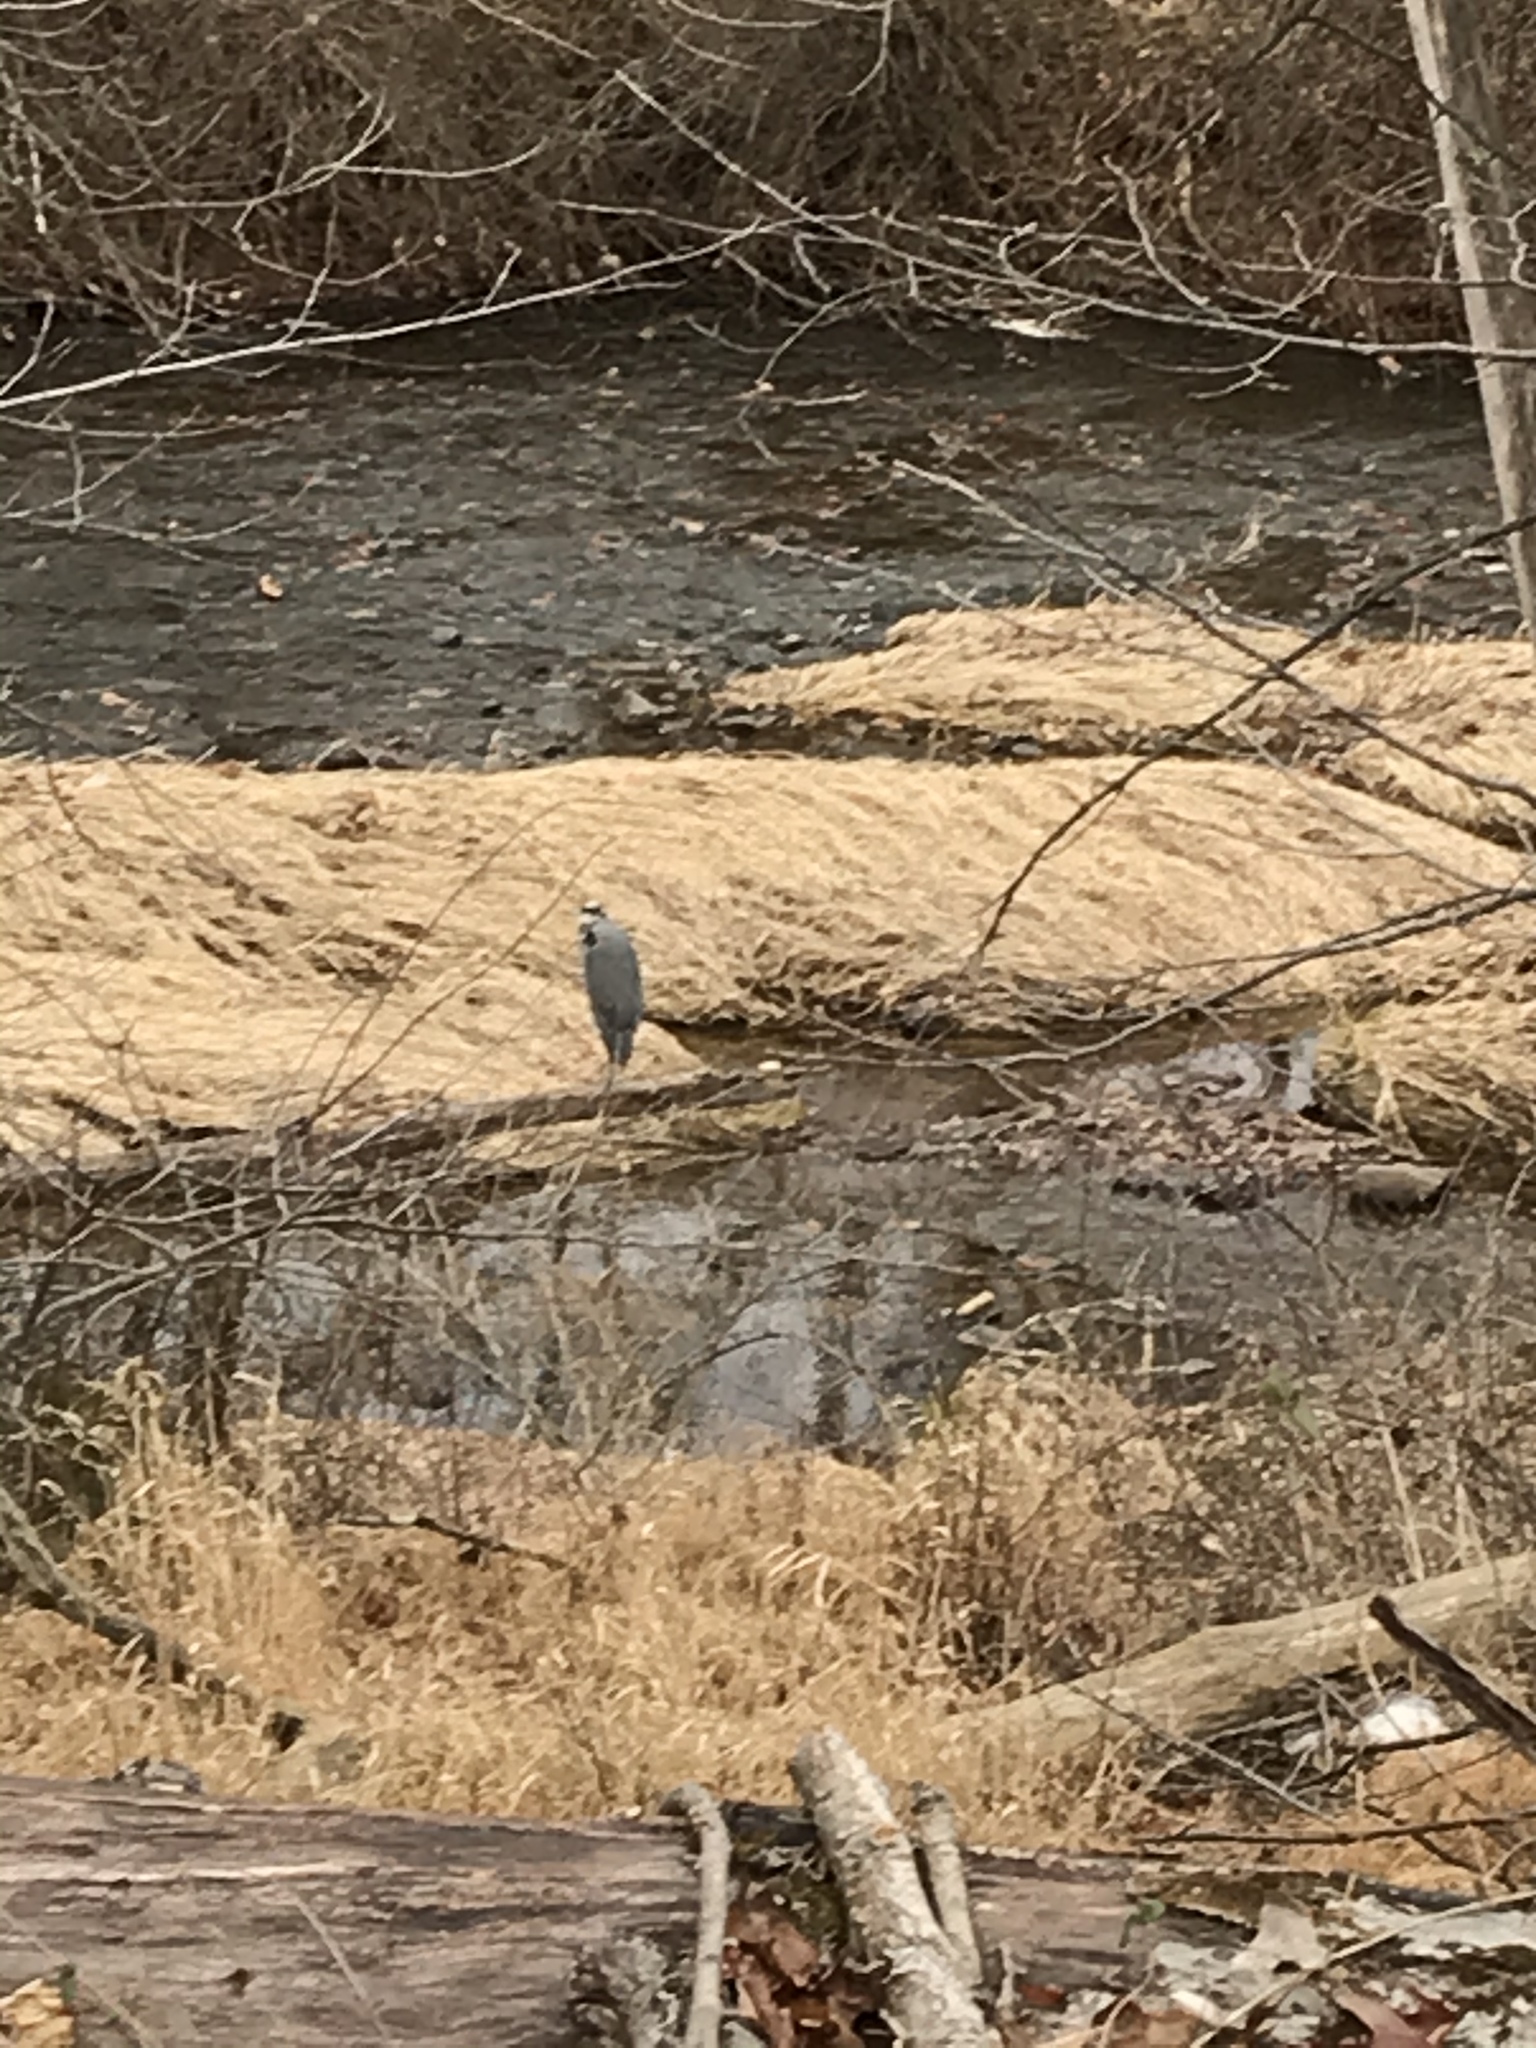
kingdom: Animalia
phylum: Chordata
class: Aves
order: Pelecaniformes
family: Ardeidae
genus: Ardea
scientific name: Ardea herodias
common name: Great blue heron
